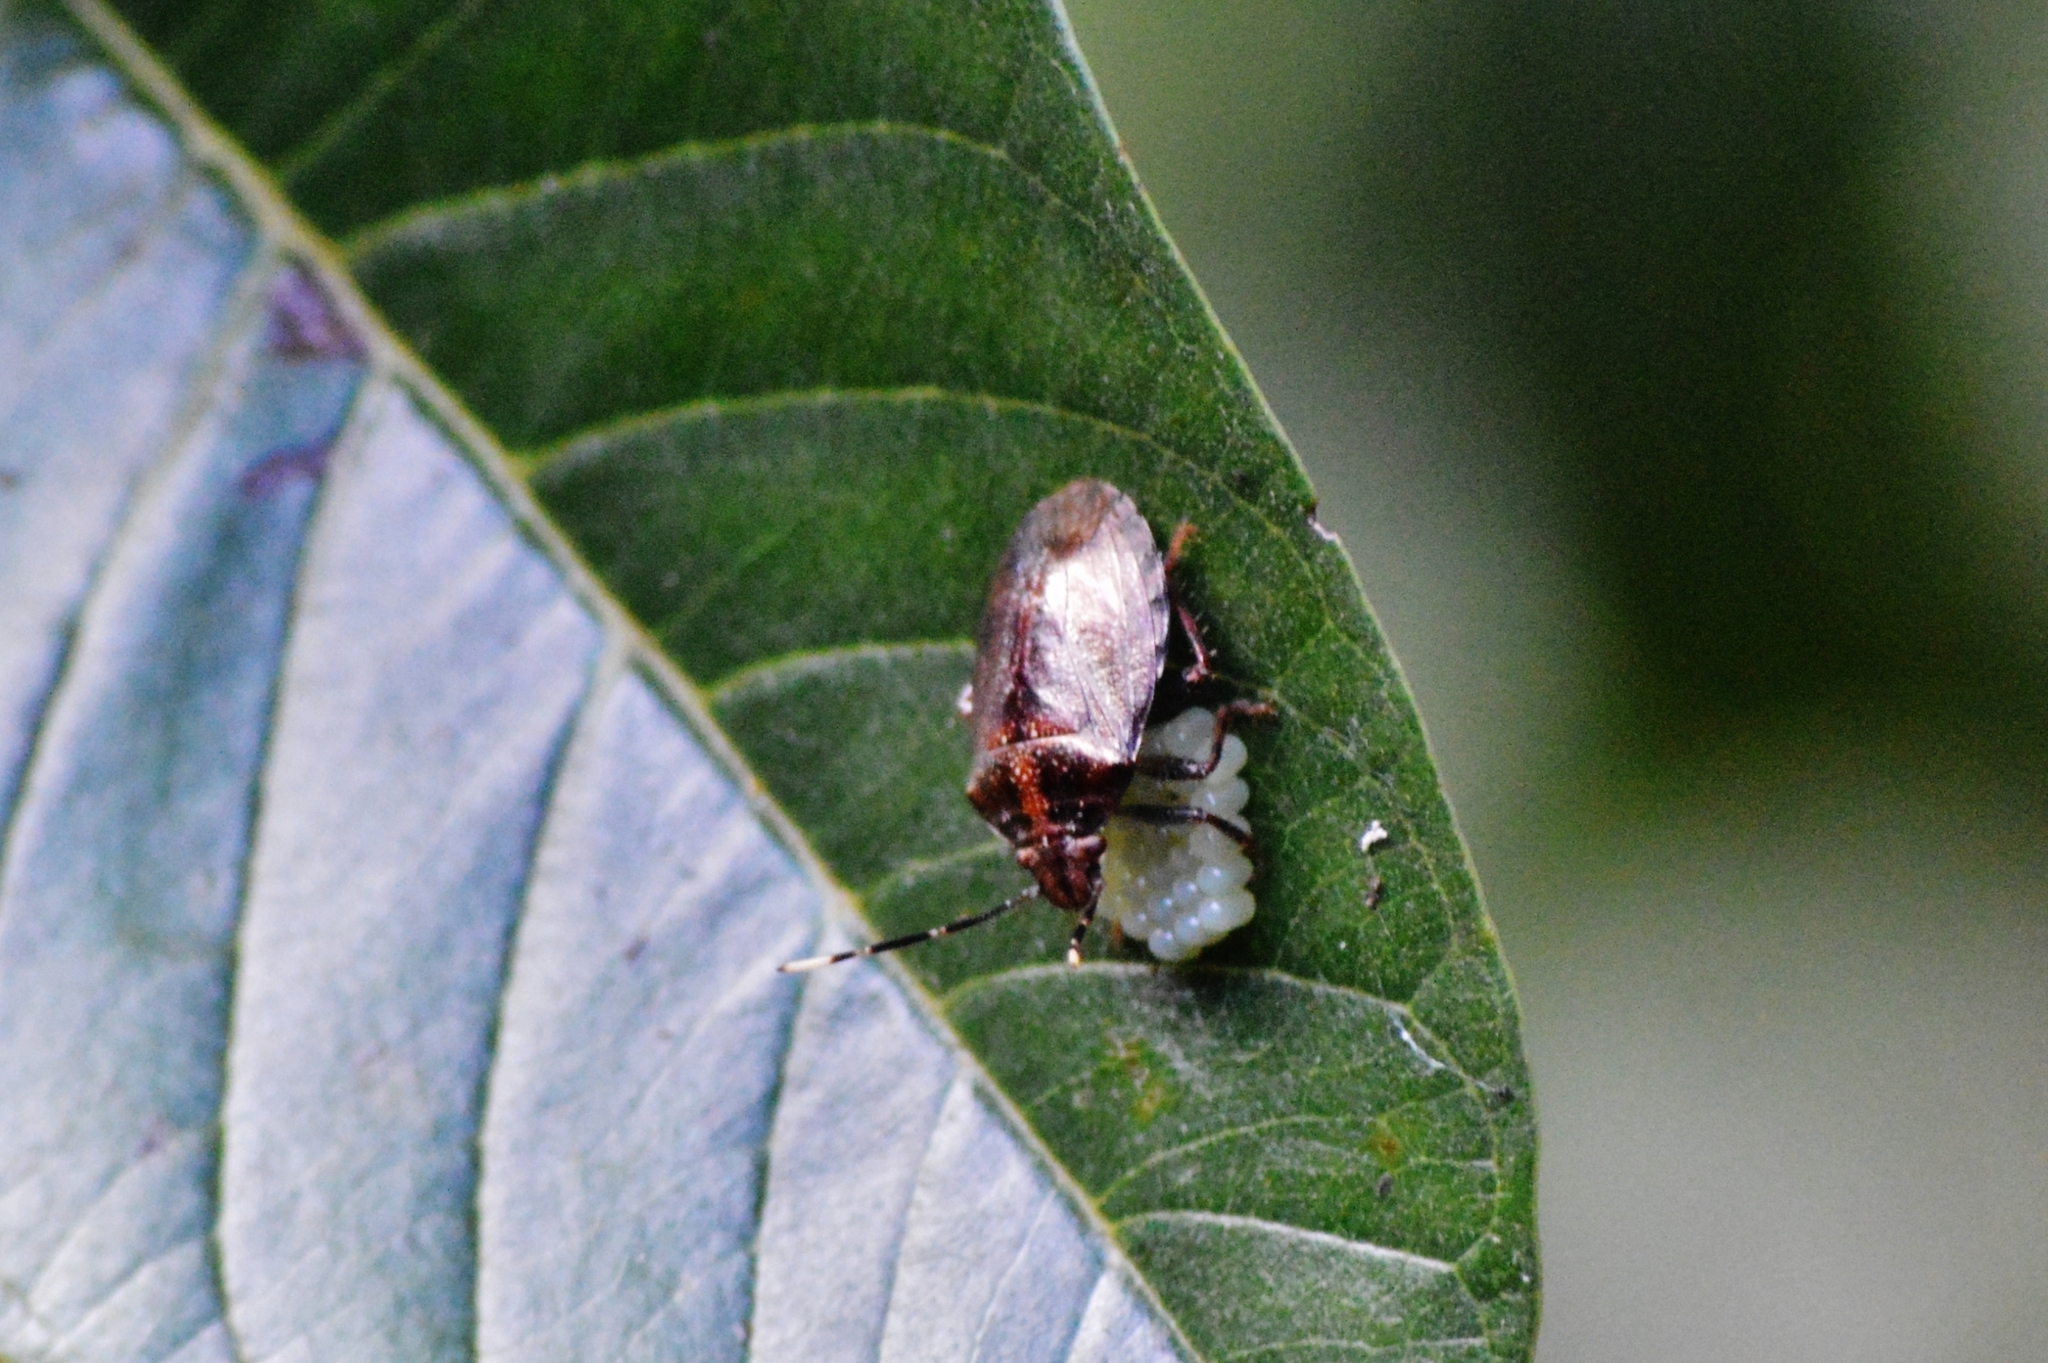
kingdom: Animalia
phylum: Arthropoda
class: Insecta
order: Hemiptera
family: Pentatomidae
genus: Antiteuchus
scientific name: Antiteuchus tripterus
